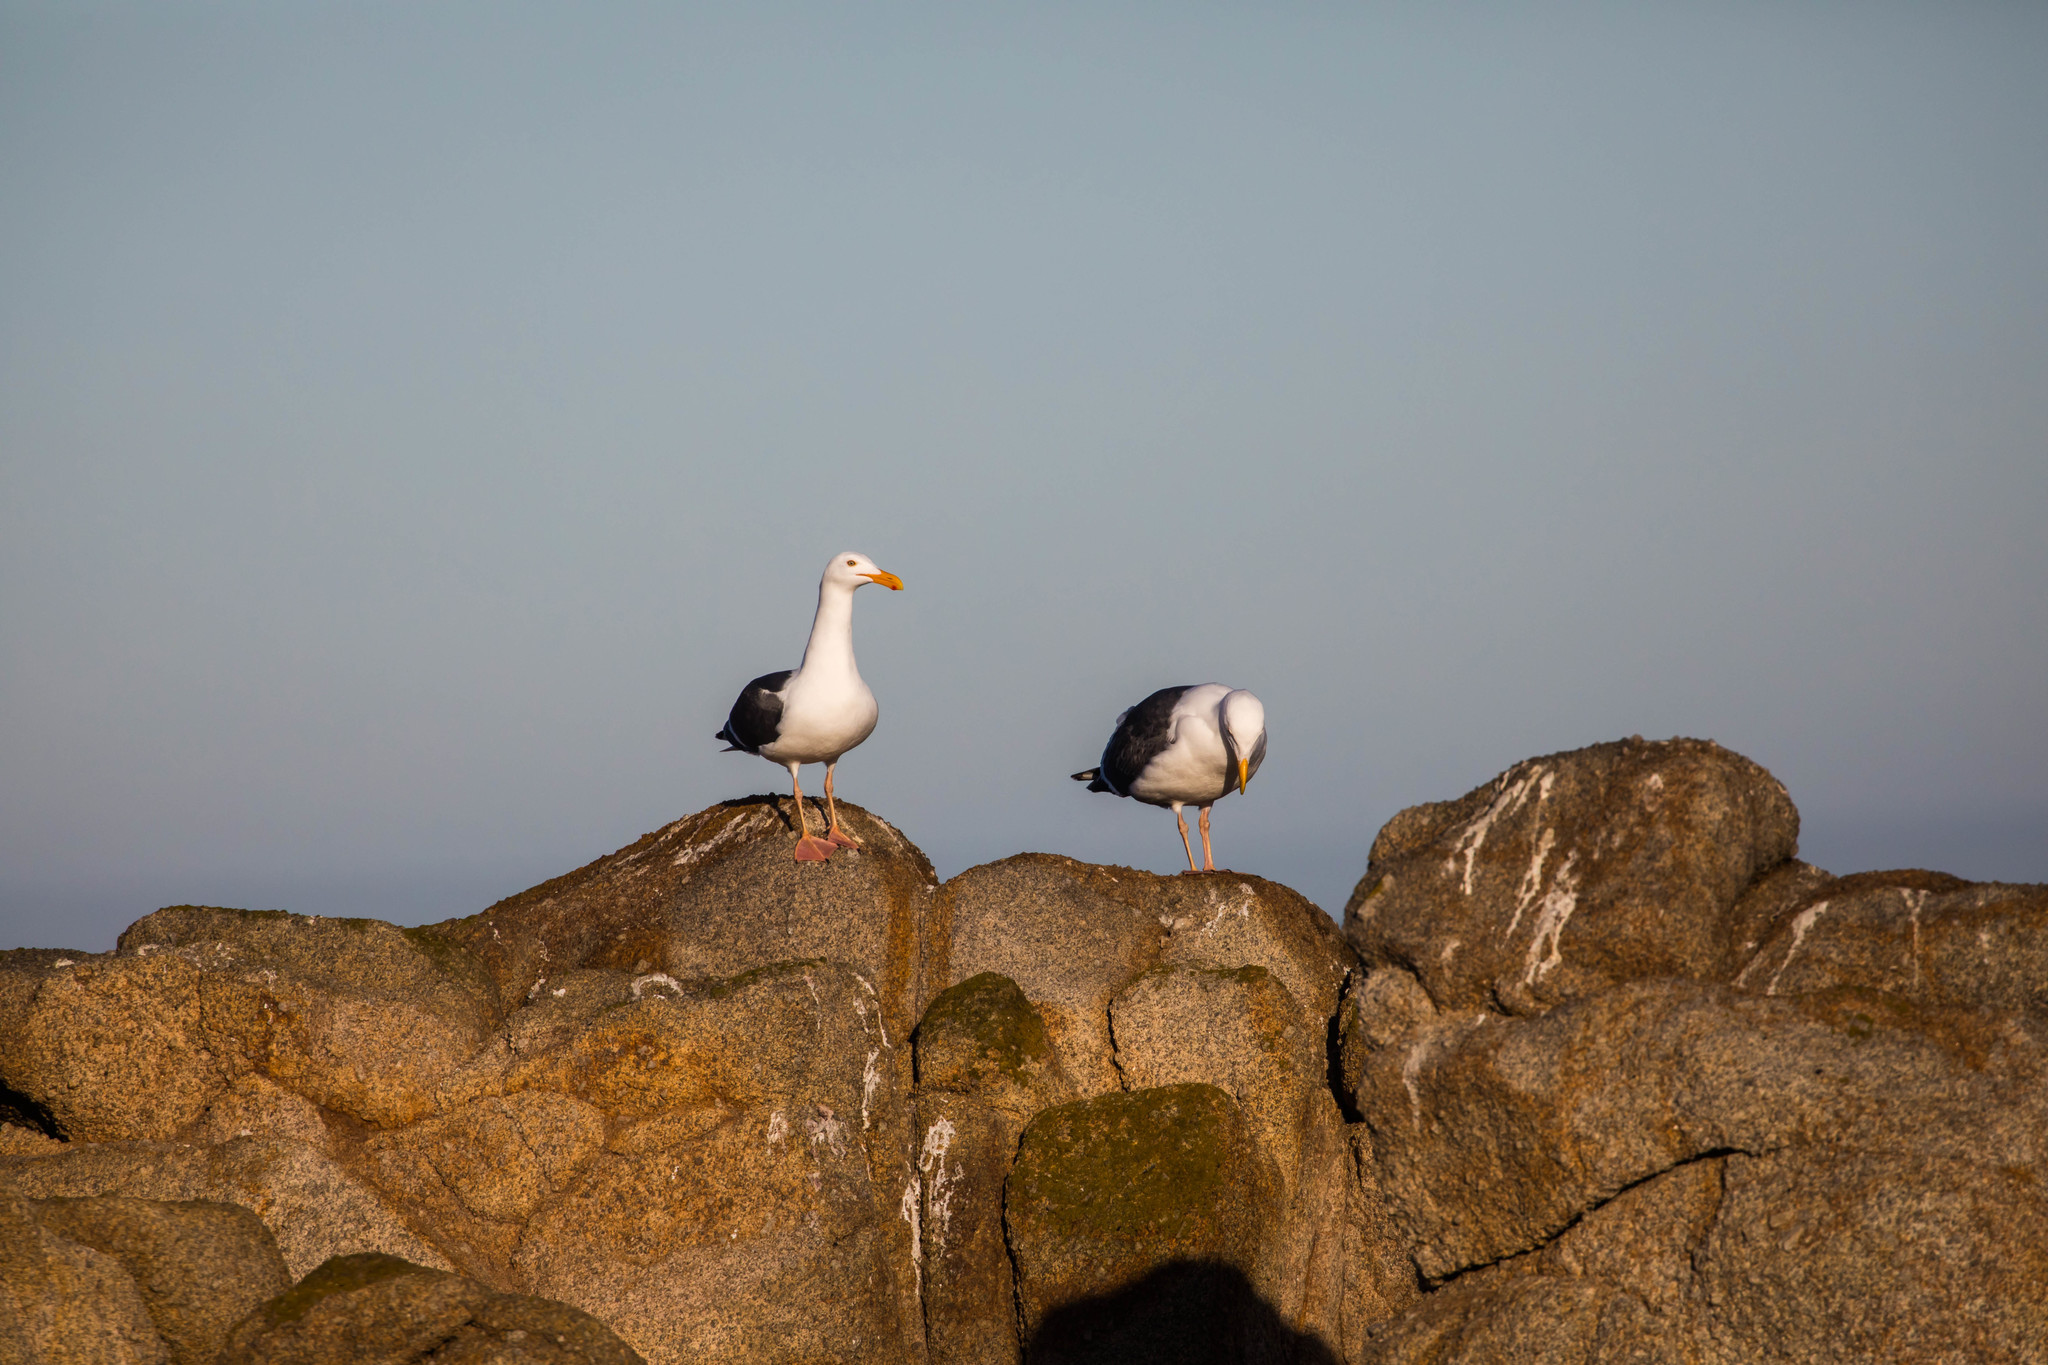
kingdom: Animalia
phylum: Chordata
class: Aves
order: Charadriiformes
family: Laridae
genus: Larus
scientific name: Larus occidentalis
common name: Western gull
